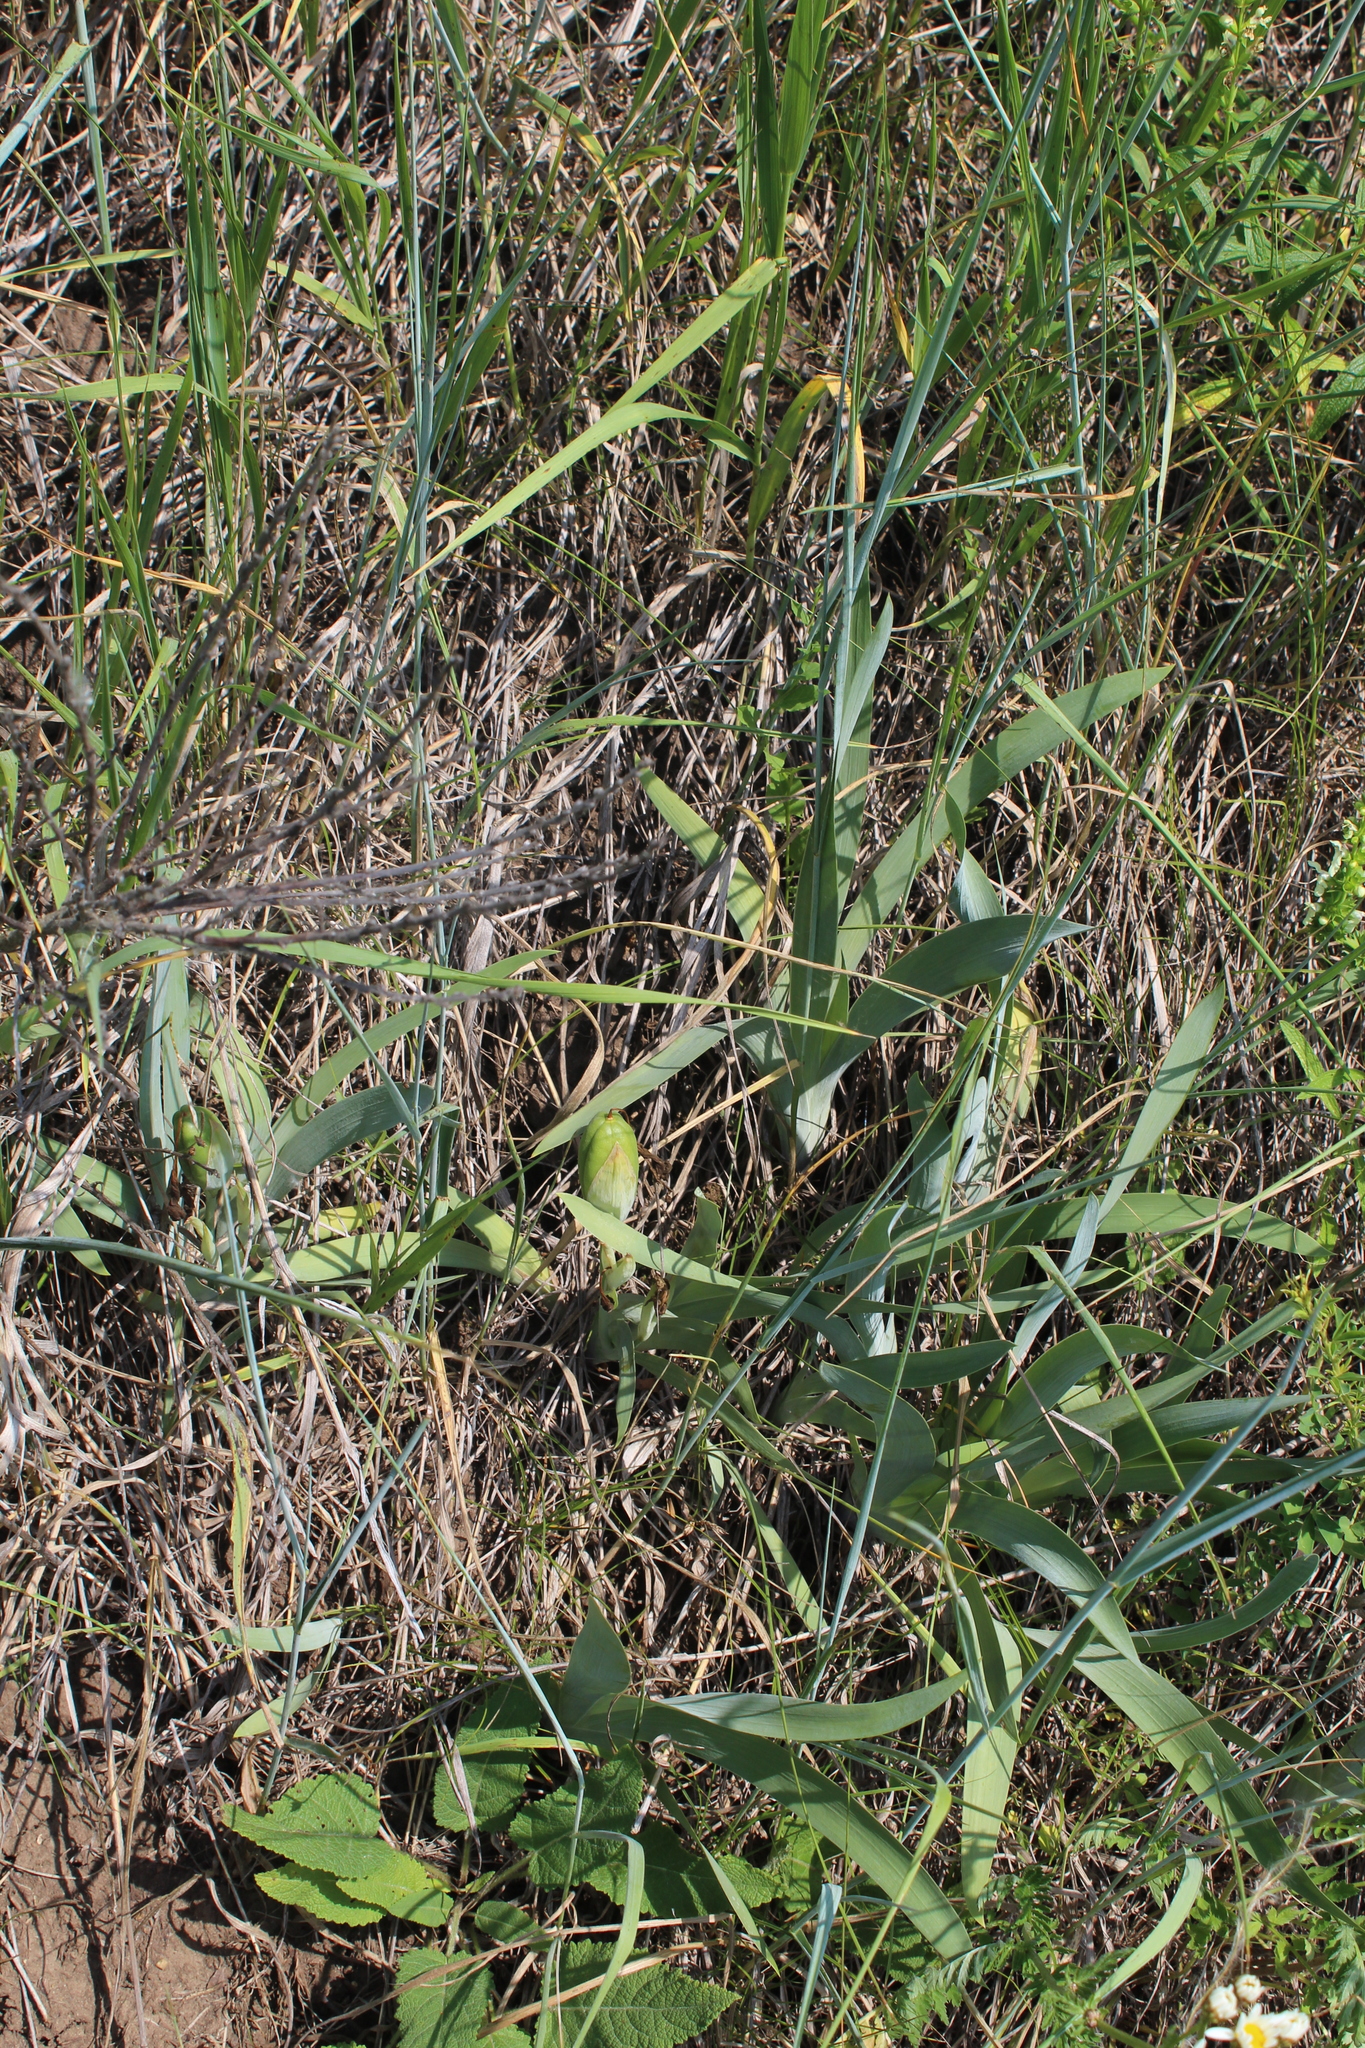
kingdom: Plantae
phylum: Tracheophyta
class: Liliopsida
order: Asparagales
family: Iridaceae
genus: Iris
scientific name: Iris aphylla
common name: Stool iris
